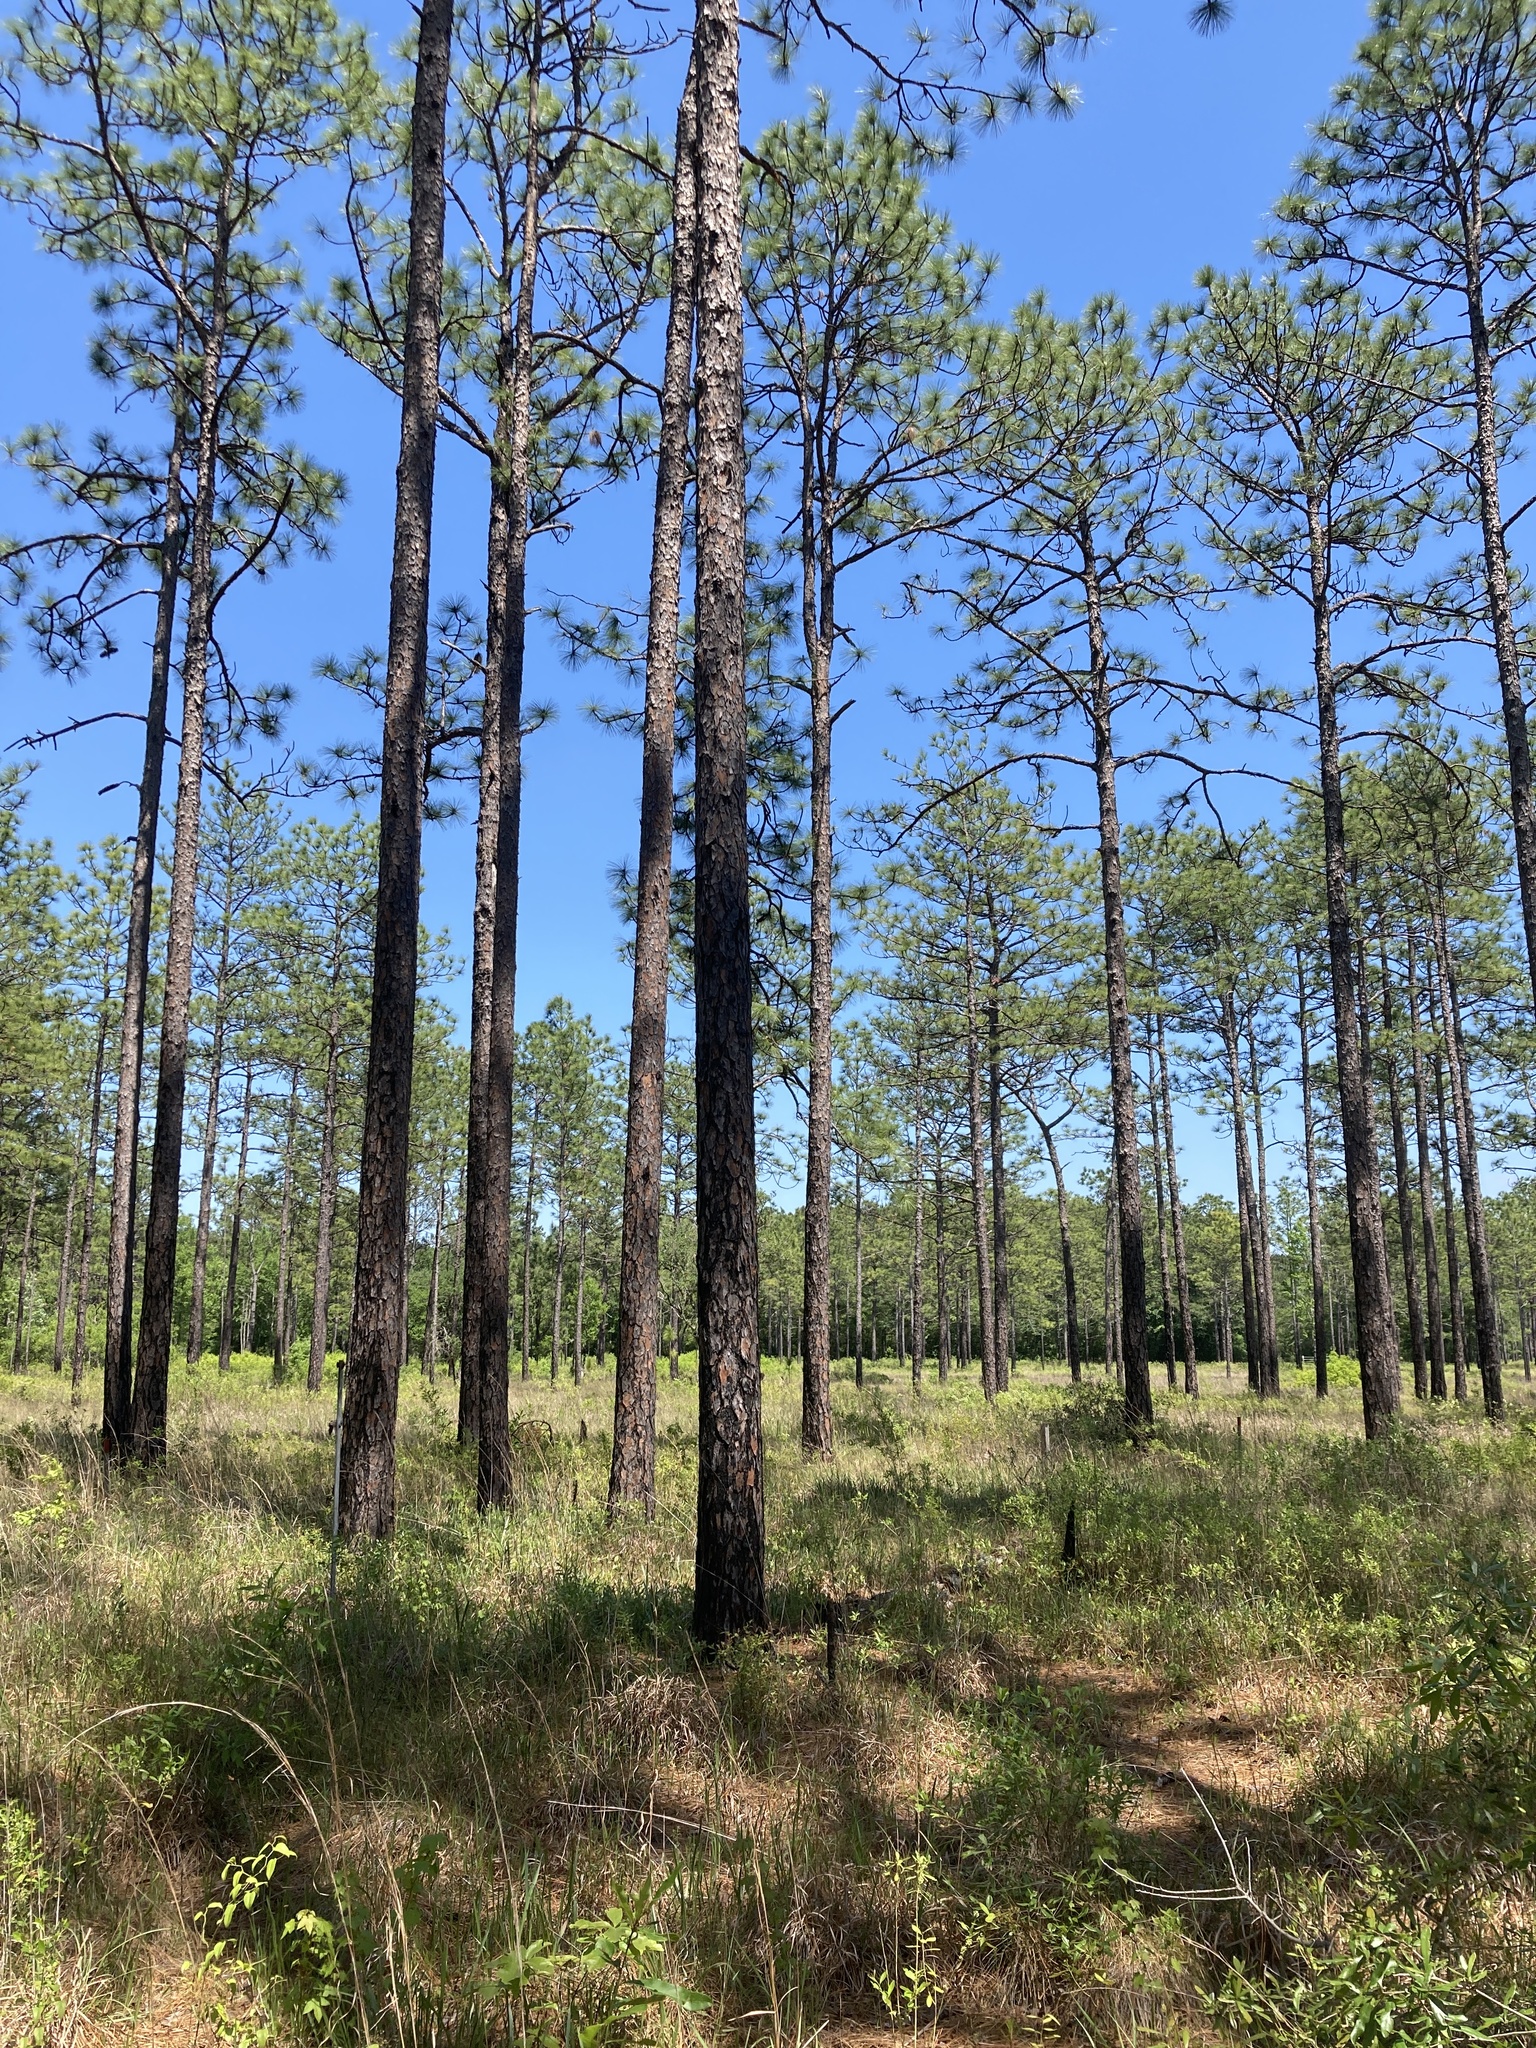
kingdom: Plantae
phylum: Tracheophyta
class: Pinopsida
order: Pinales
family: Pinaceae
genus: Pinus
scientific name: Pinus palustris
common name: Longleaf pine
